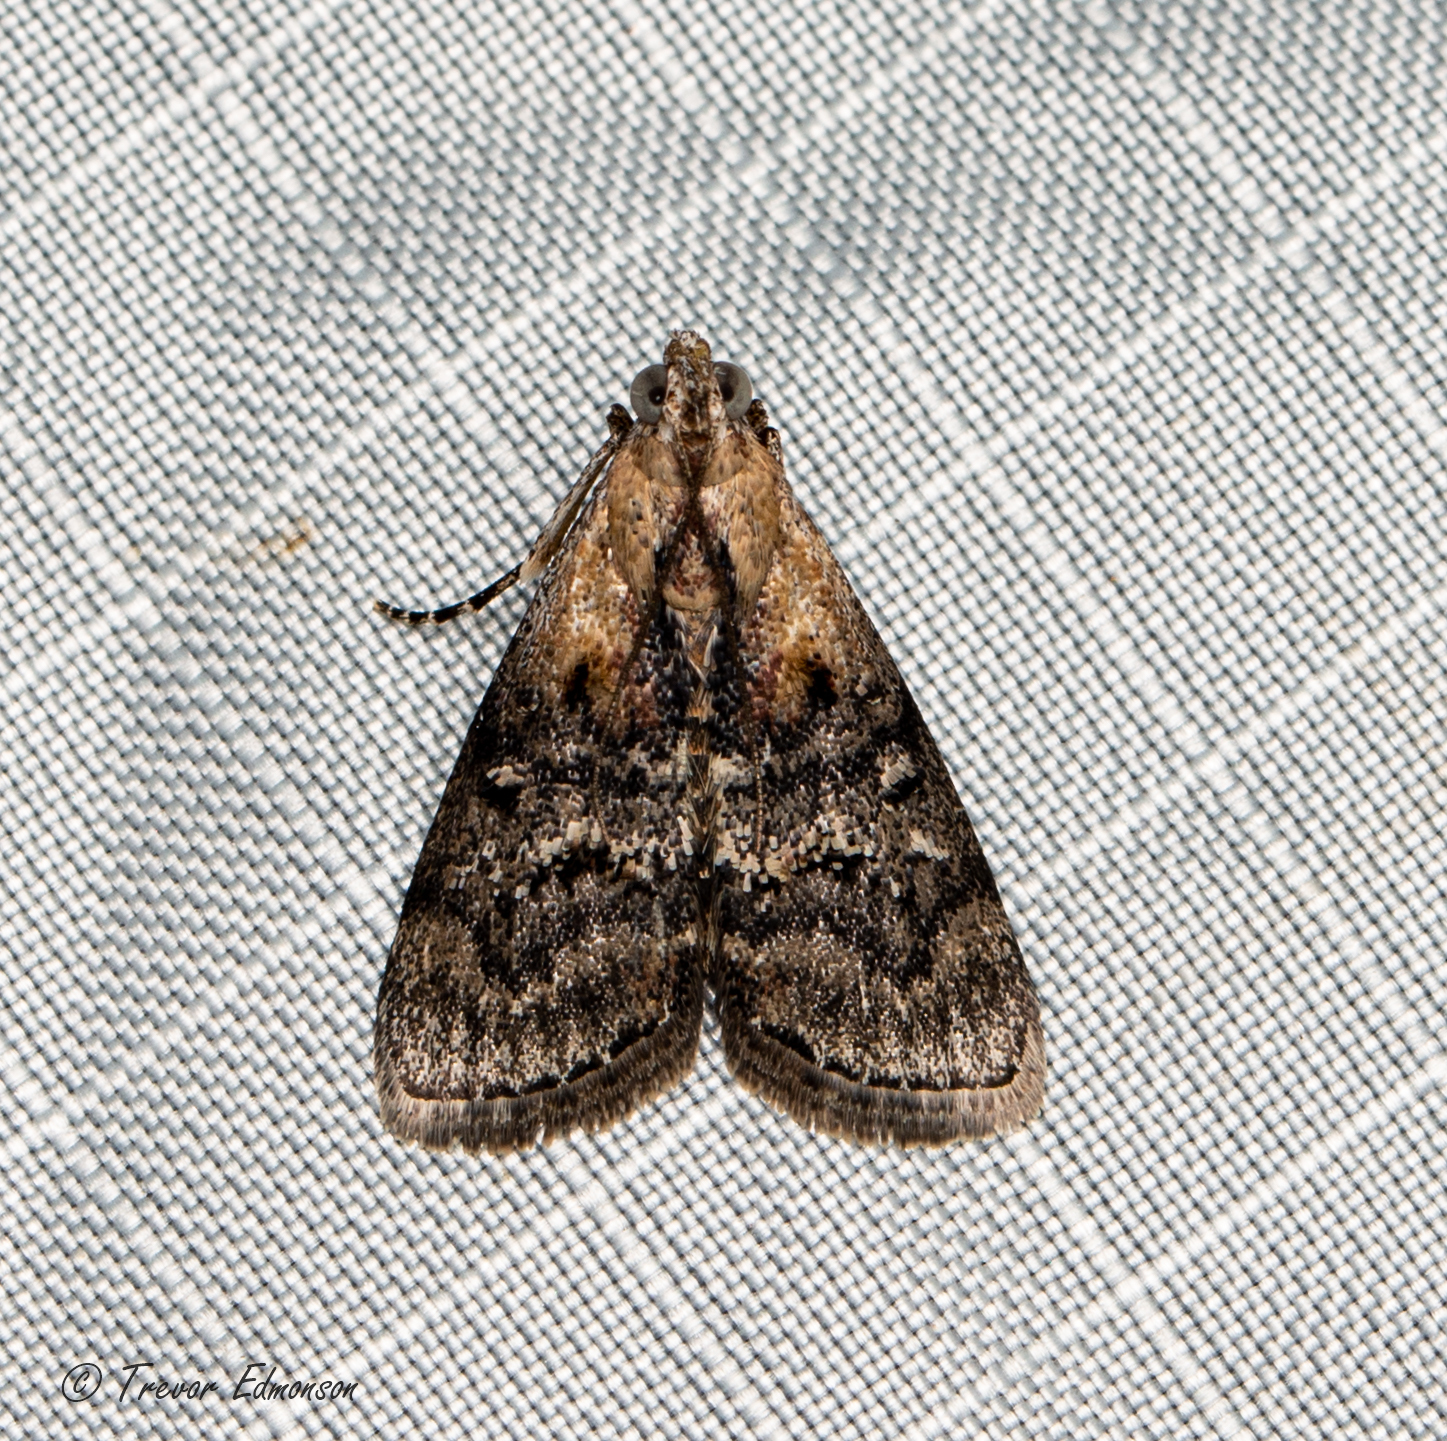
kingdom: Animalia
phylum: Arthropoda
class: Insecta
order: Lepidoptera
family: Pyralidae
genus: Pococera
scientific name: Pococera expandens
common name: Striped oak webworm moth
